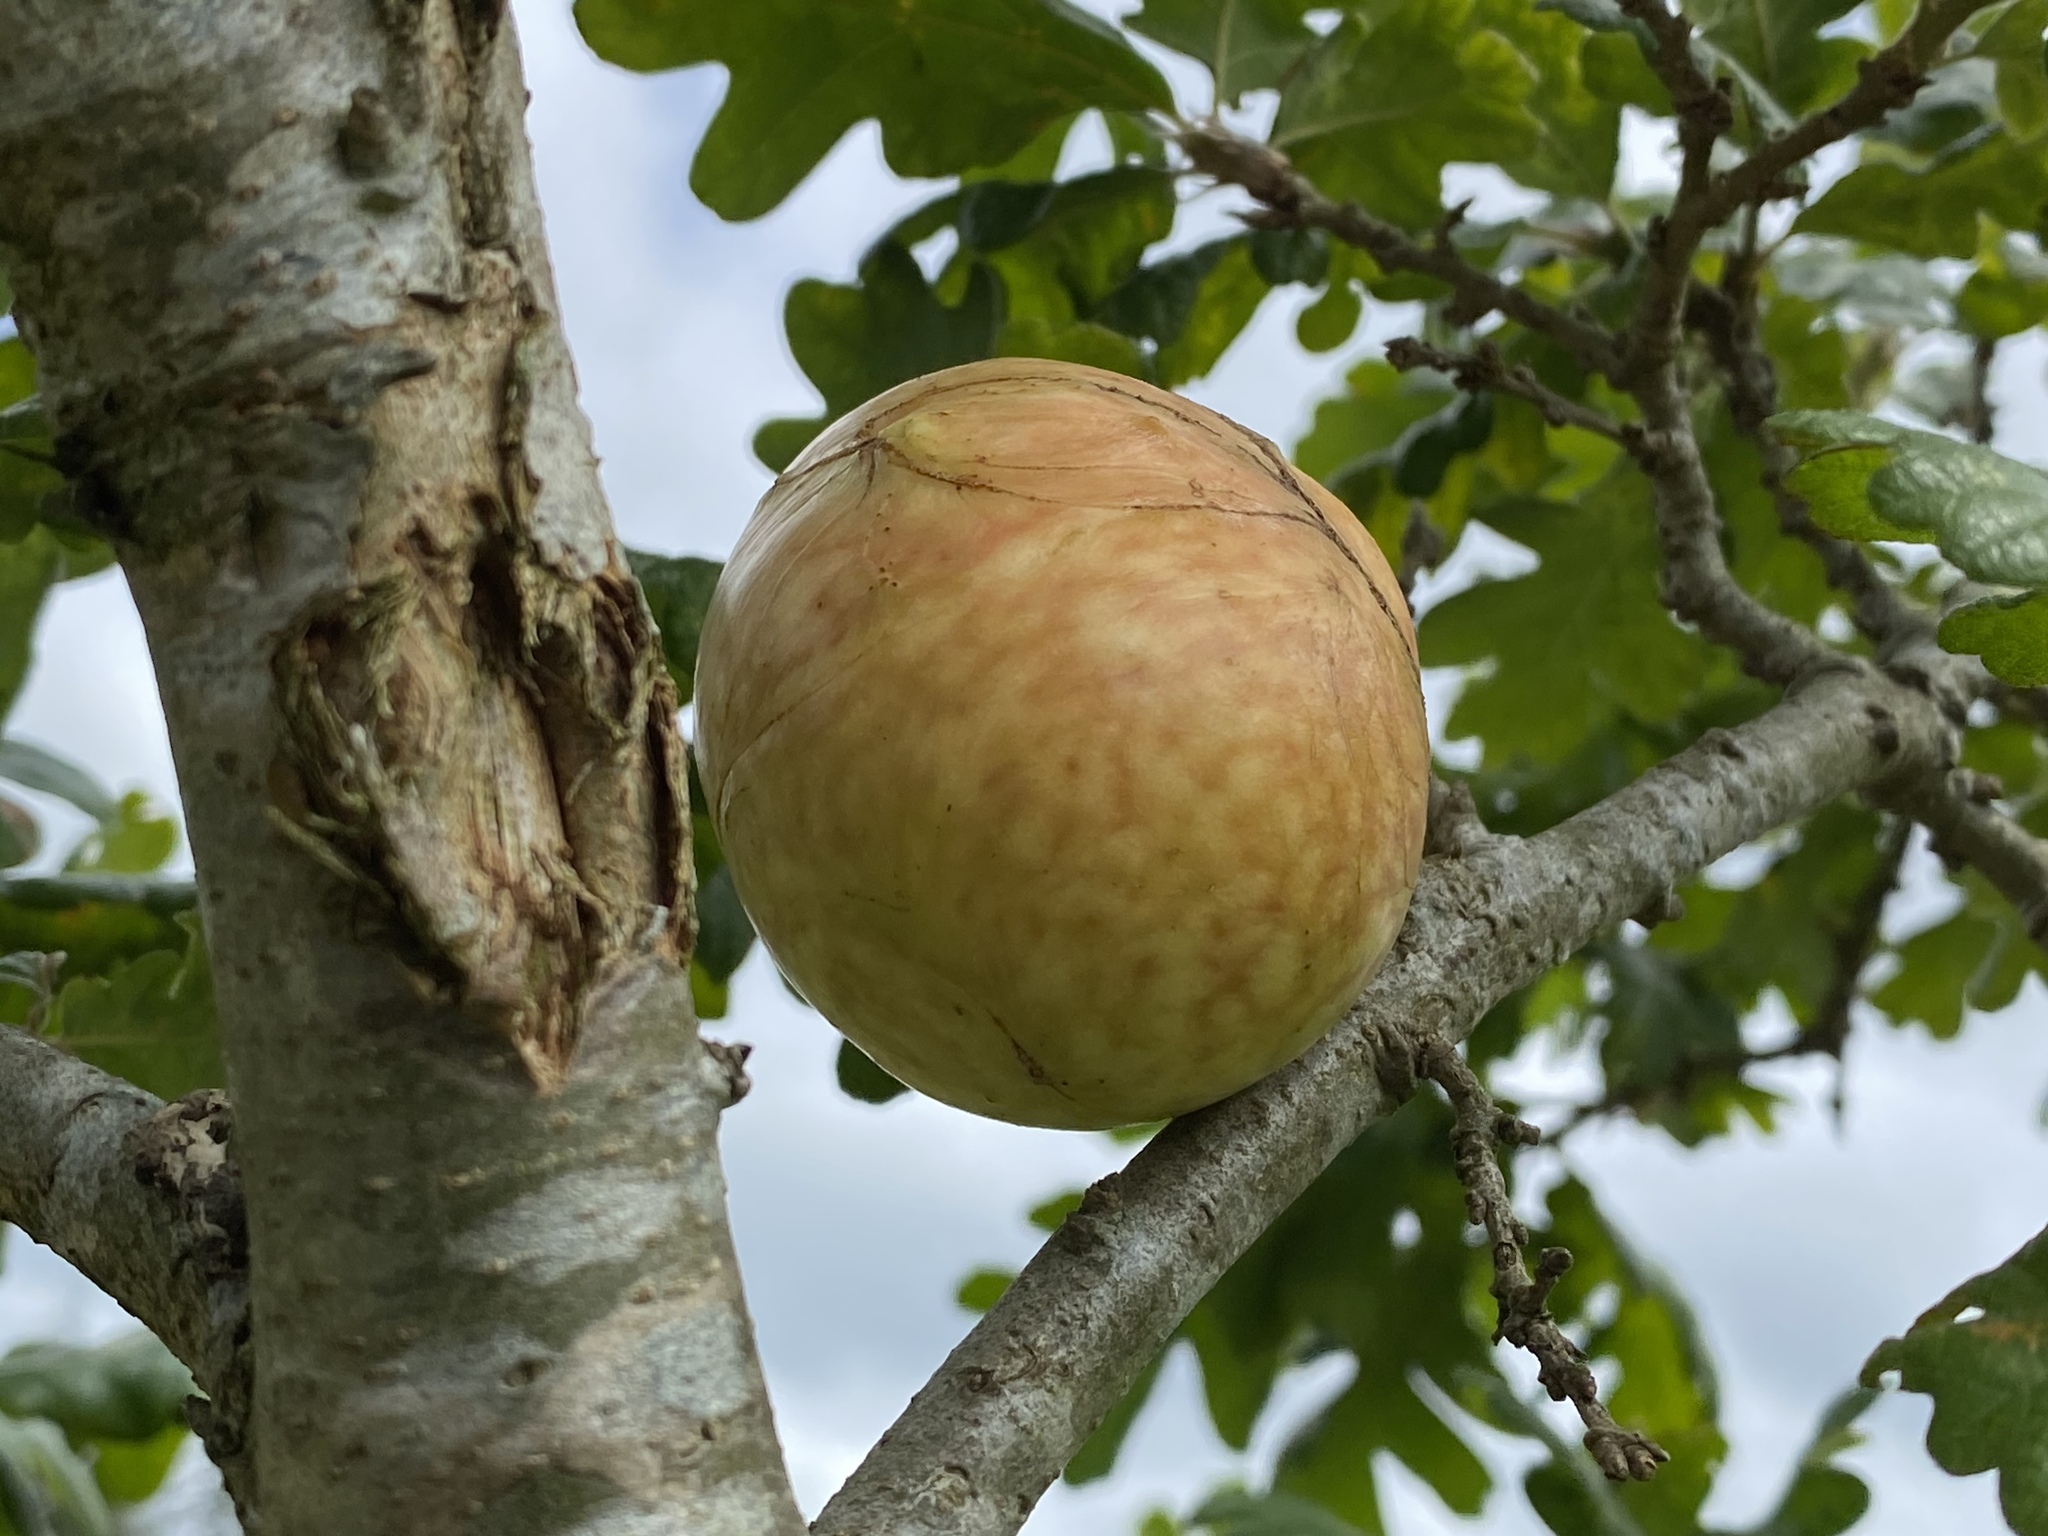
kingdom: Animalia
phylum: Arthropoda
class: Insecta
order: Hymenoptera
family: Cynipidae
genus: Andricus
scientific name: Andricus quercuscalifornicus
